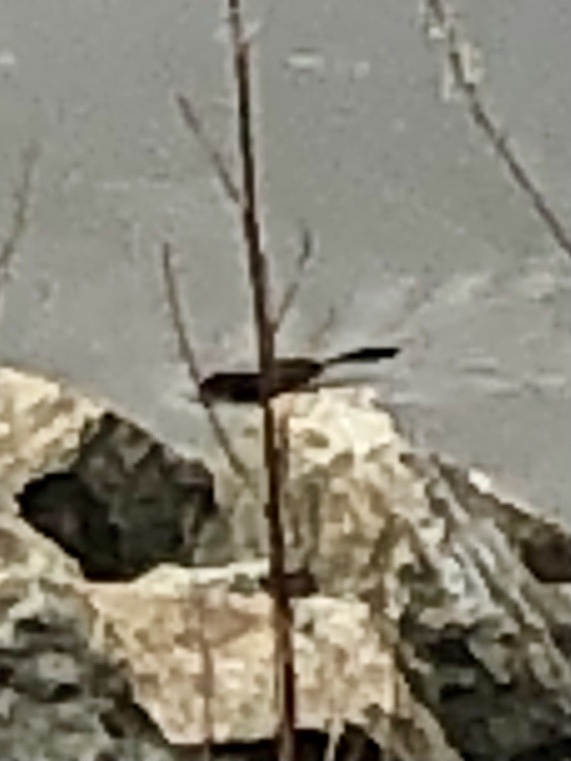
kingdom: Animalia
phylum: Chordata
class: Mammalia
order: Rodentia
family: Cricetidae
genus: Ondatra
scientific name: Ondatra zibethicus
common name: Muskrat
